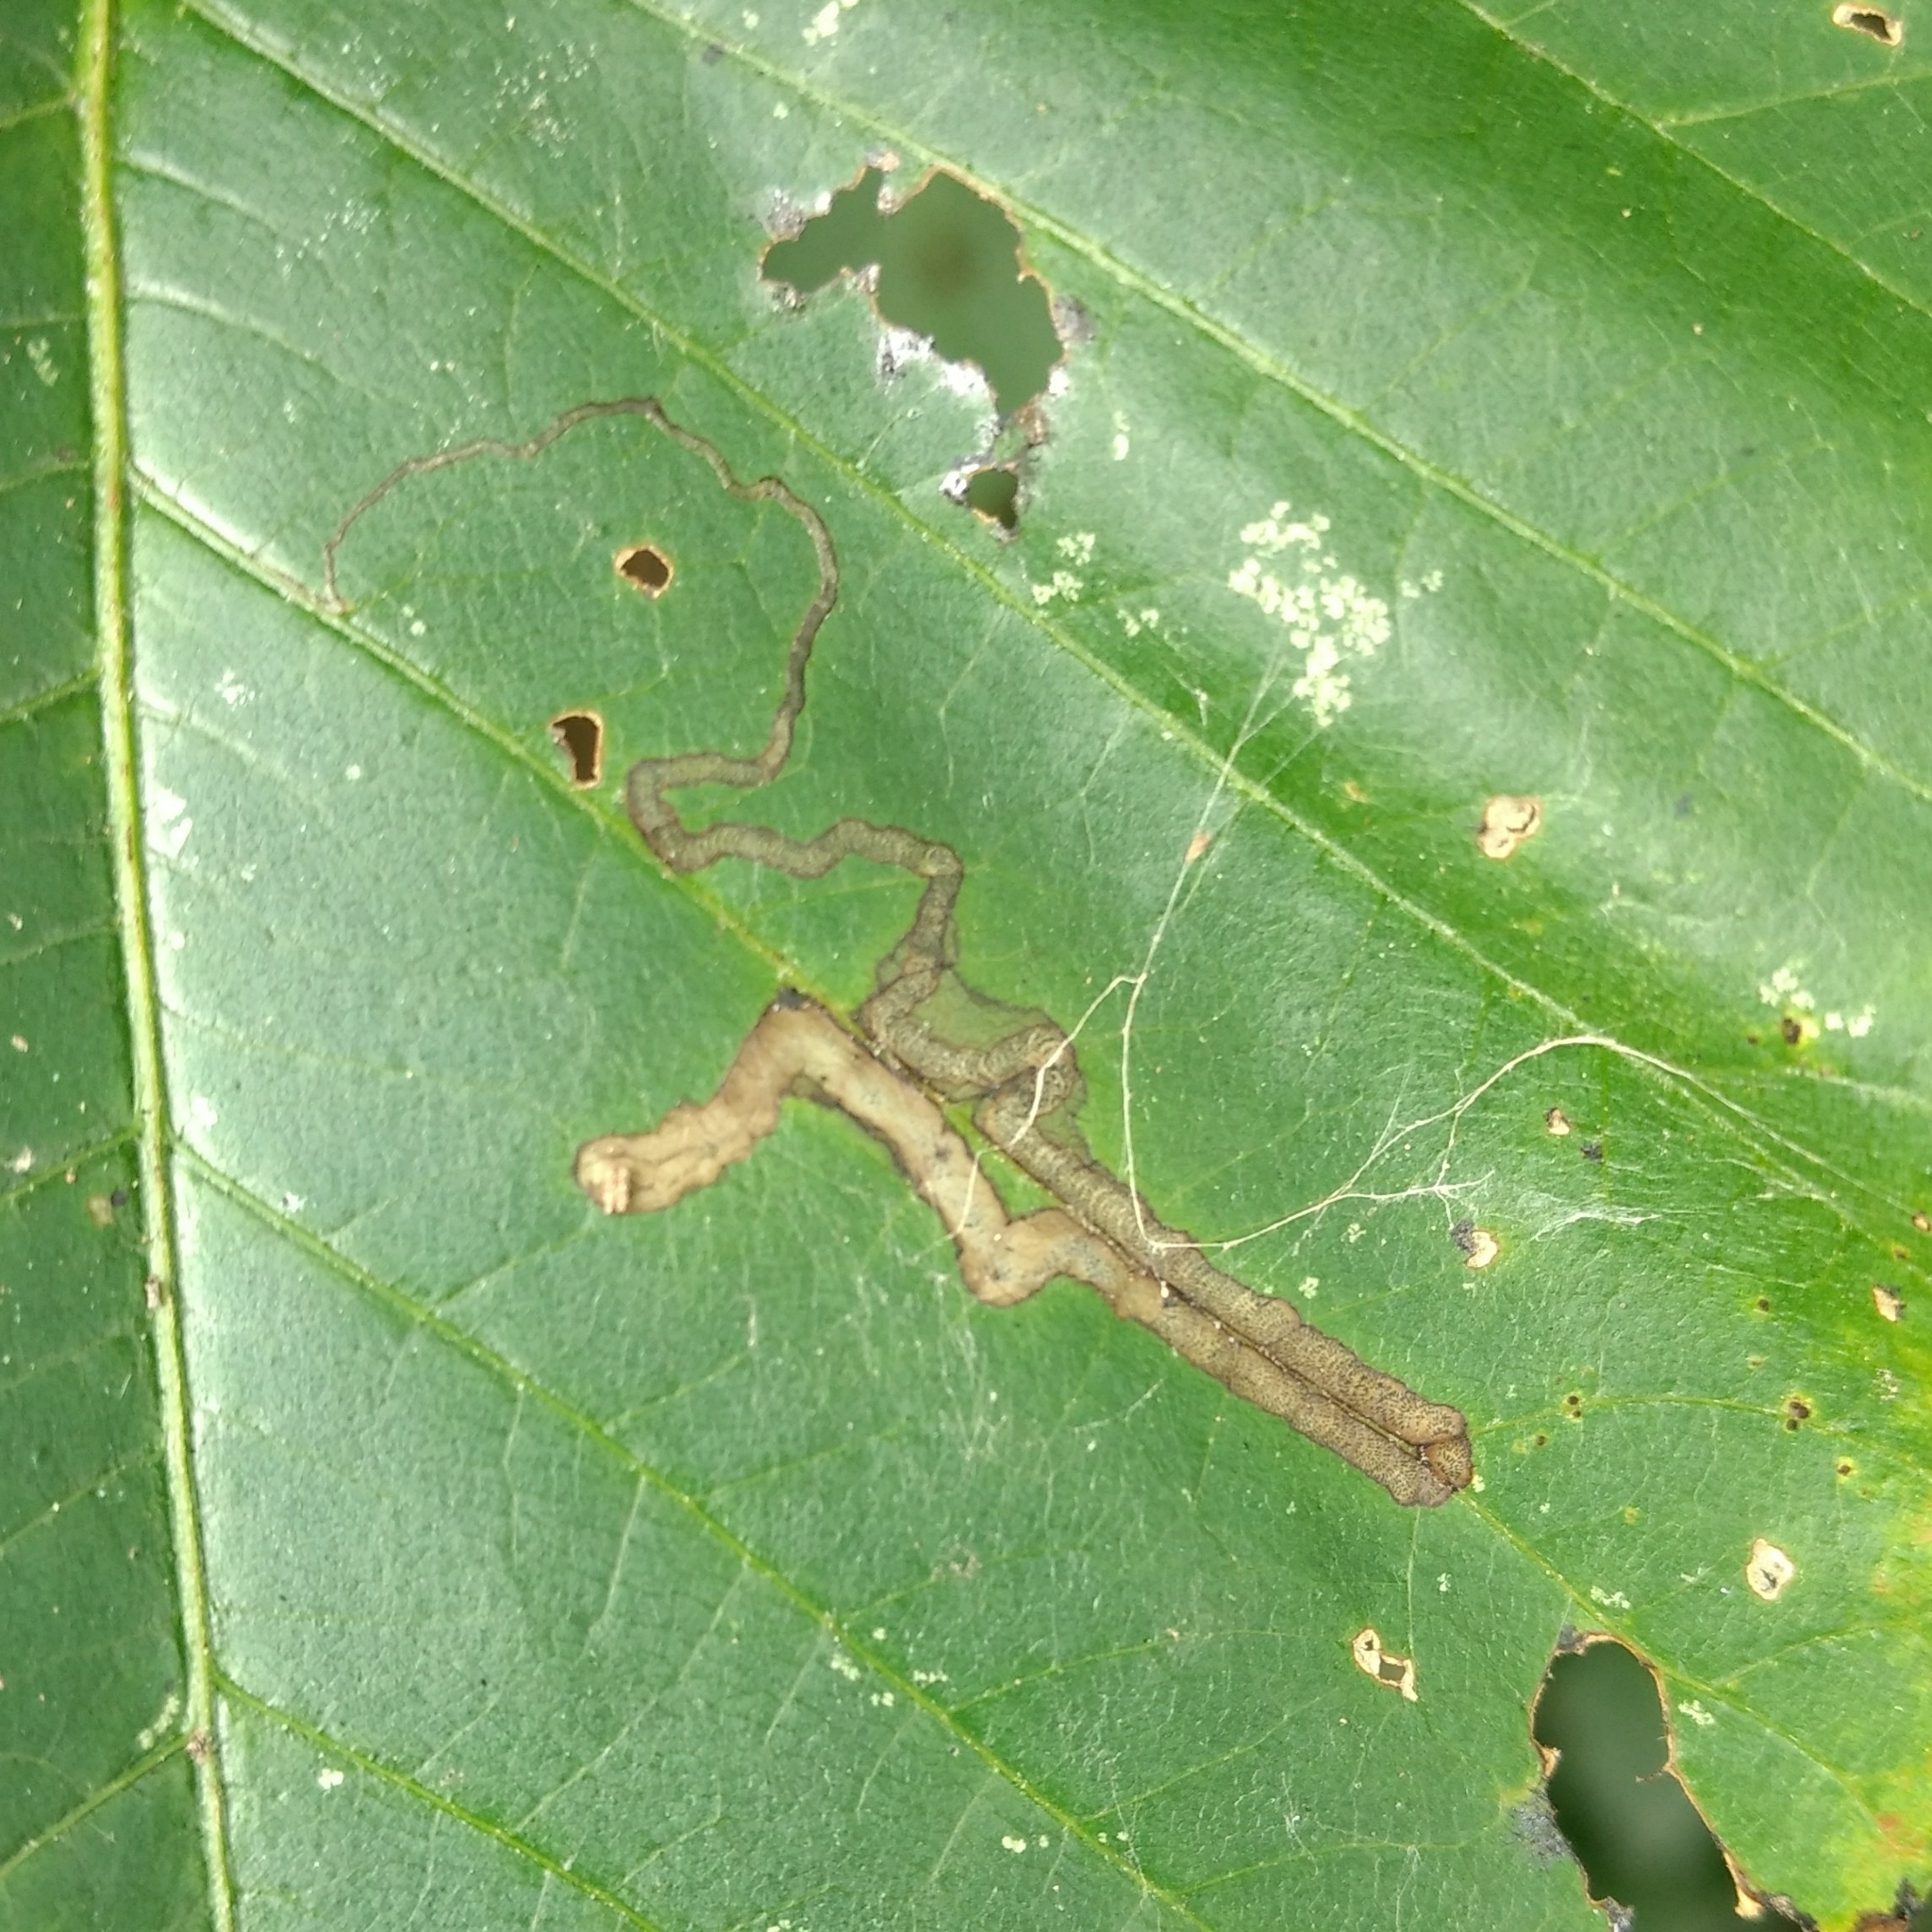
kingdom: Animalia
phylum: Arthropoda
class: Insecta
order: Lepidoptera
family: Nepticulidae
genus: Stigmella
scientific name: Stigmella rhoifoliella
